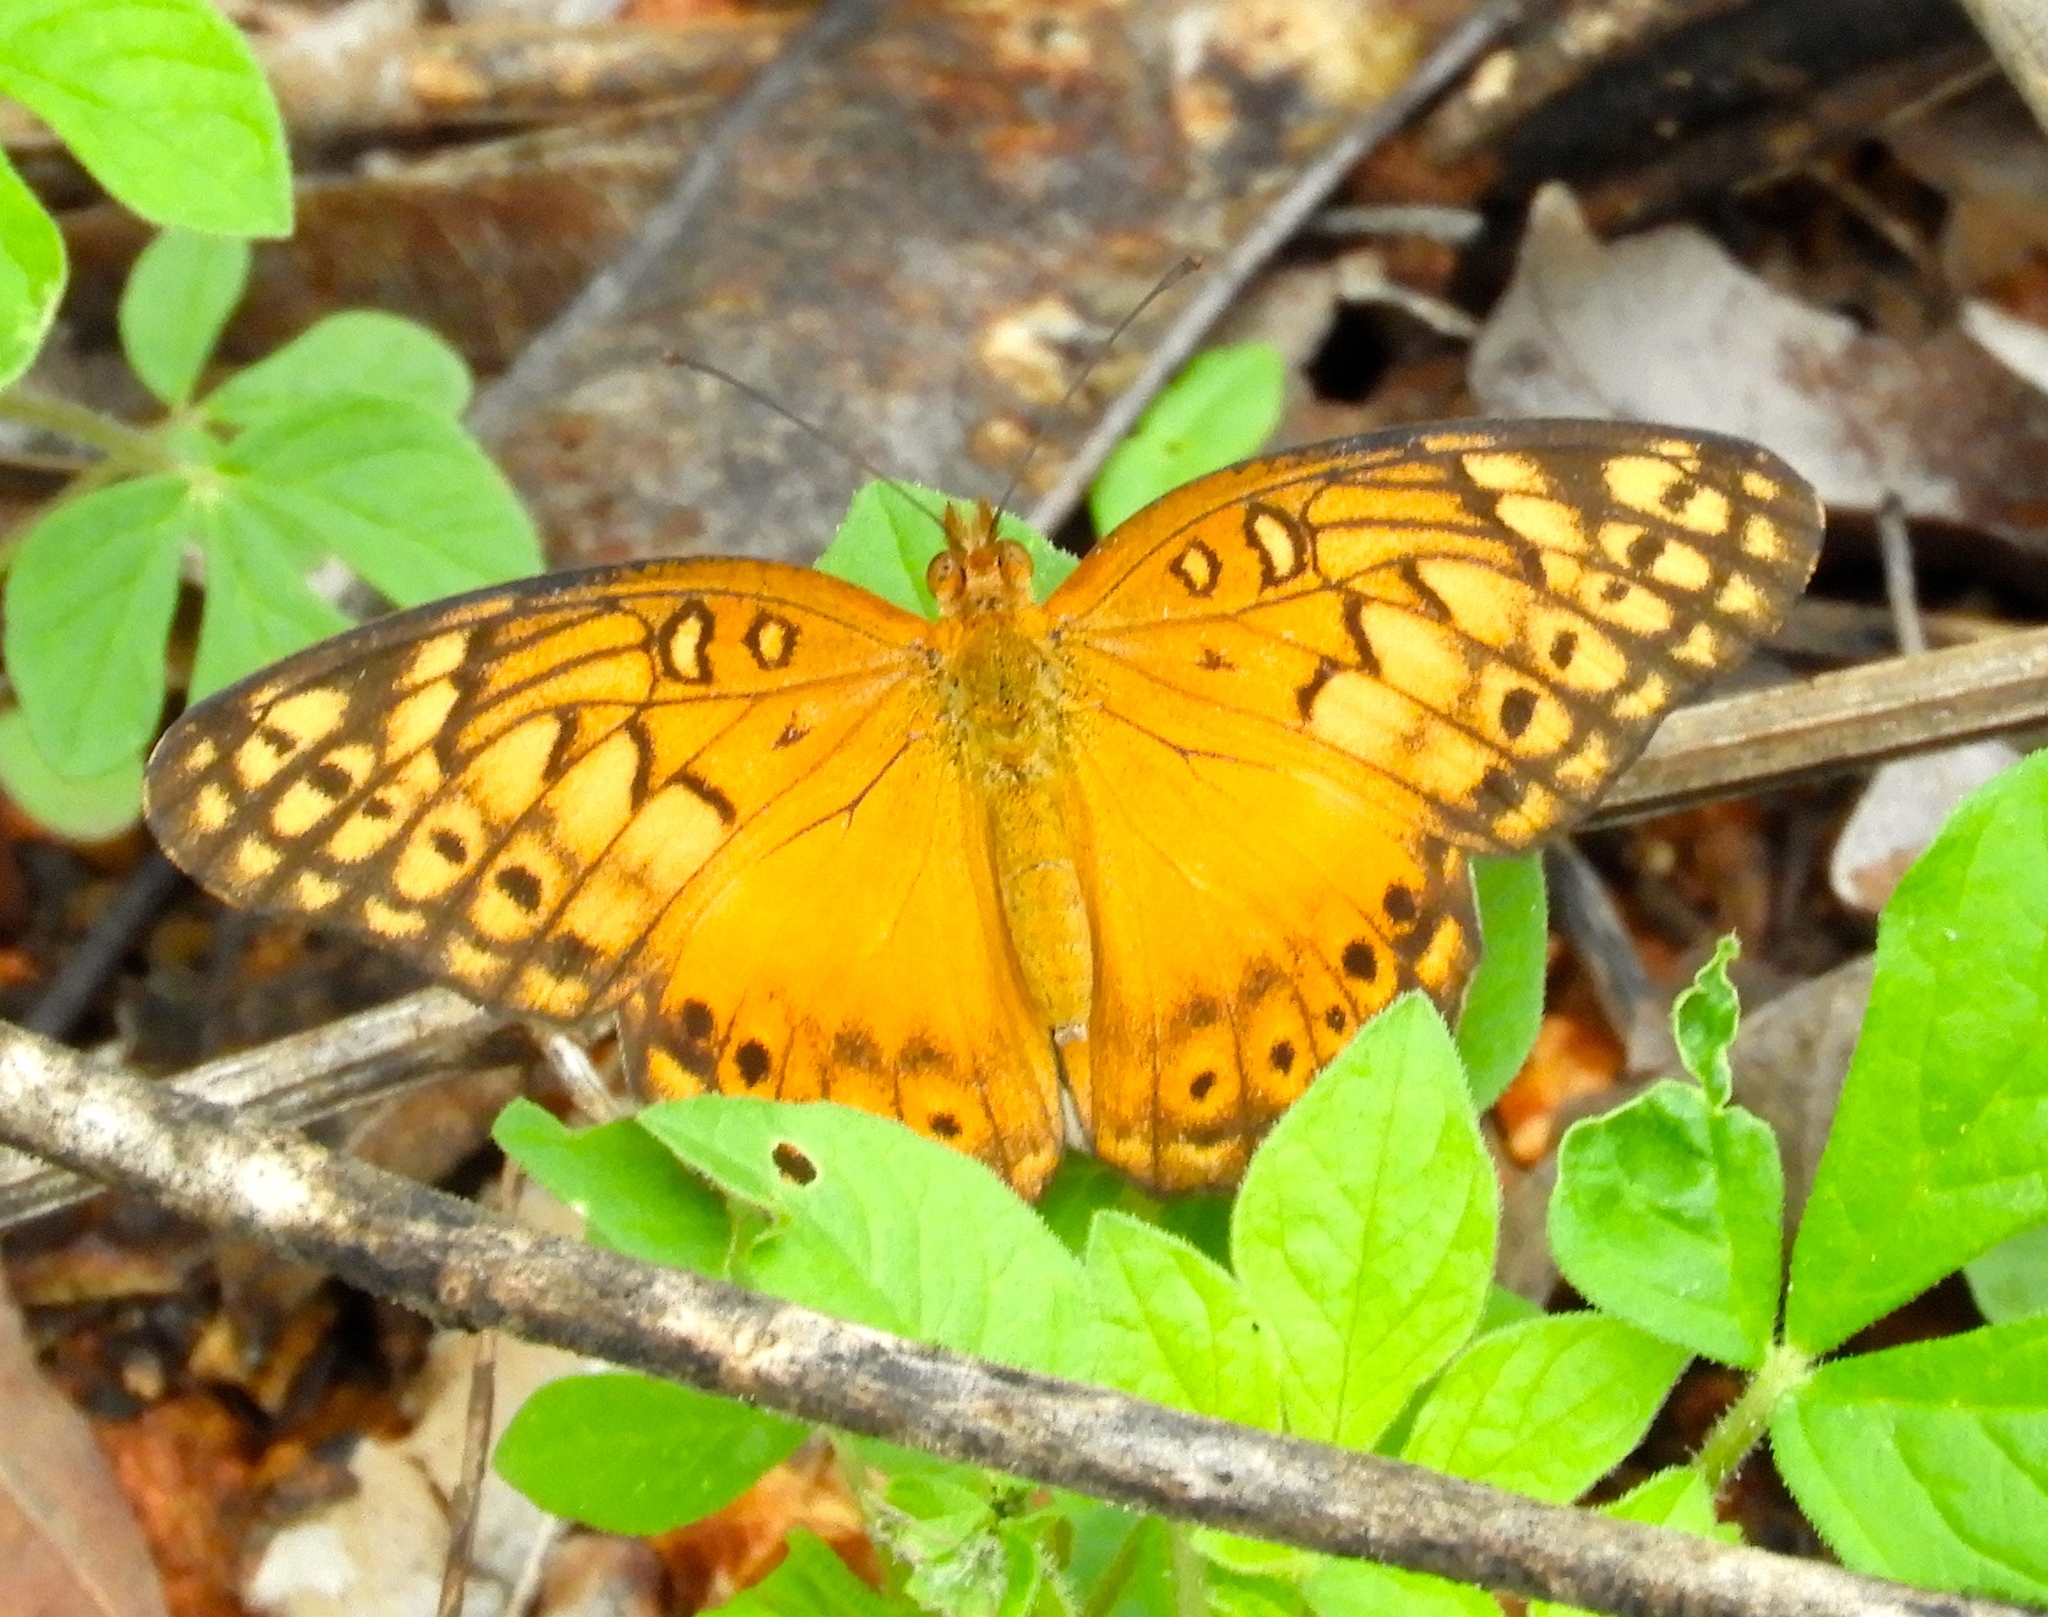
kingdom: Animalia
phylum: Arthropoda
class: Insecta
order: Lepidoptera
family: Nymphalidae
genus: Euptoieta
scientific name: Euptoieta hegesia
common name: Mexican fritillary
